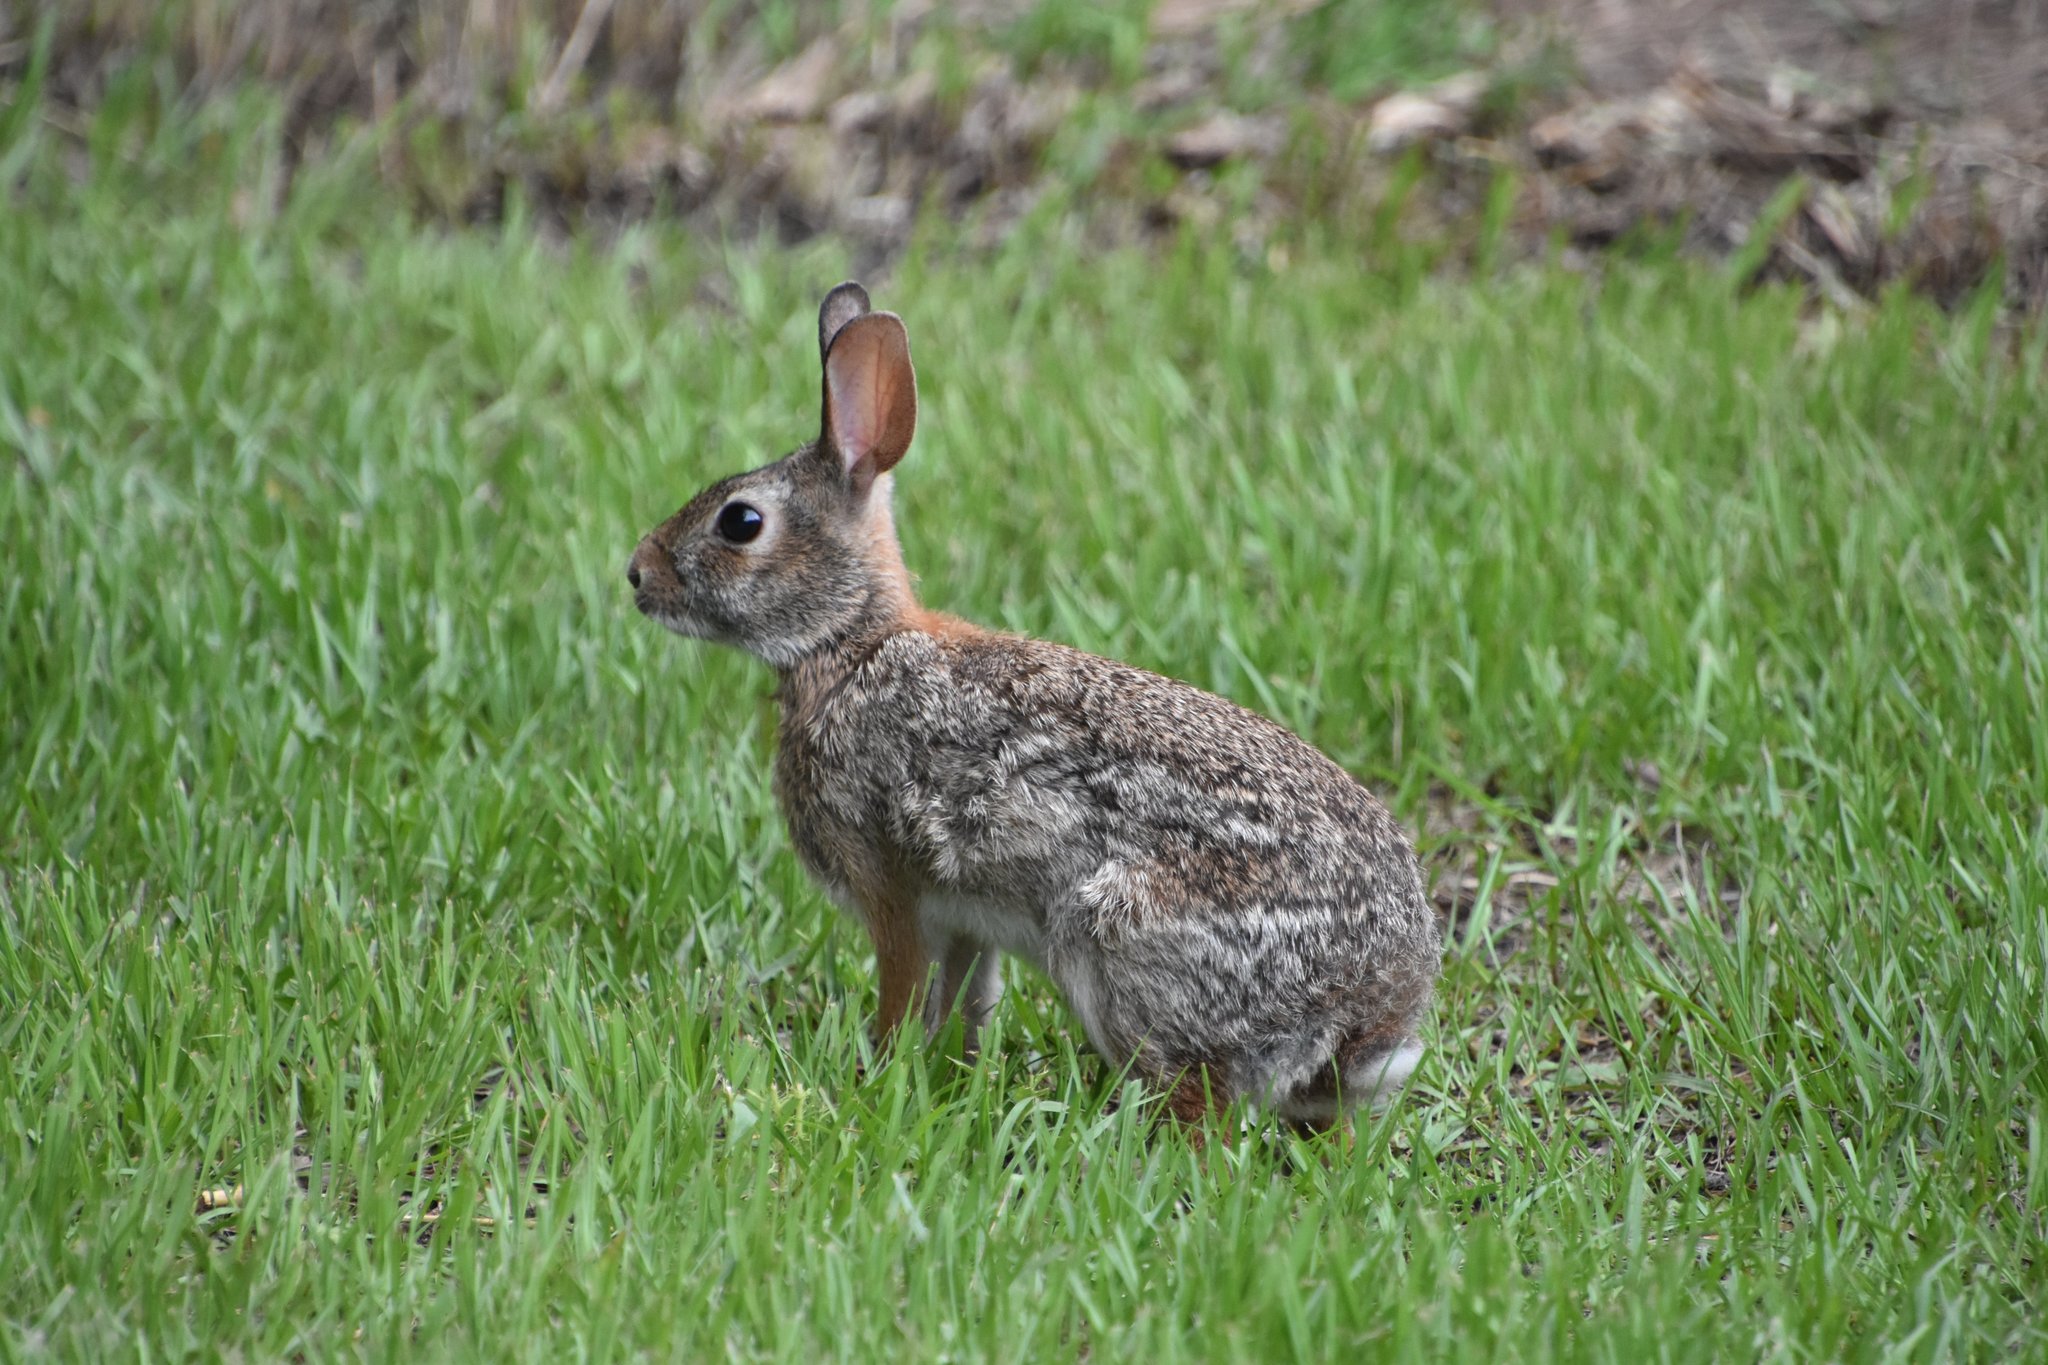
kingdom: Animalia
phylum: Chordata
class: Mammalia
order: Lagomorpha
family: Leporidae
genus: Sylvilagus
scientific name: Sylvilagus floridanus
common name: Eastern cottontail
